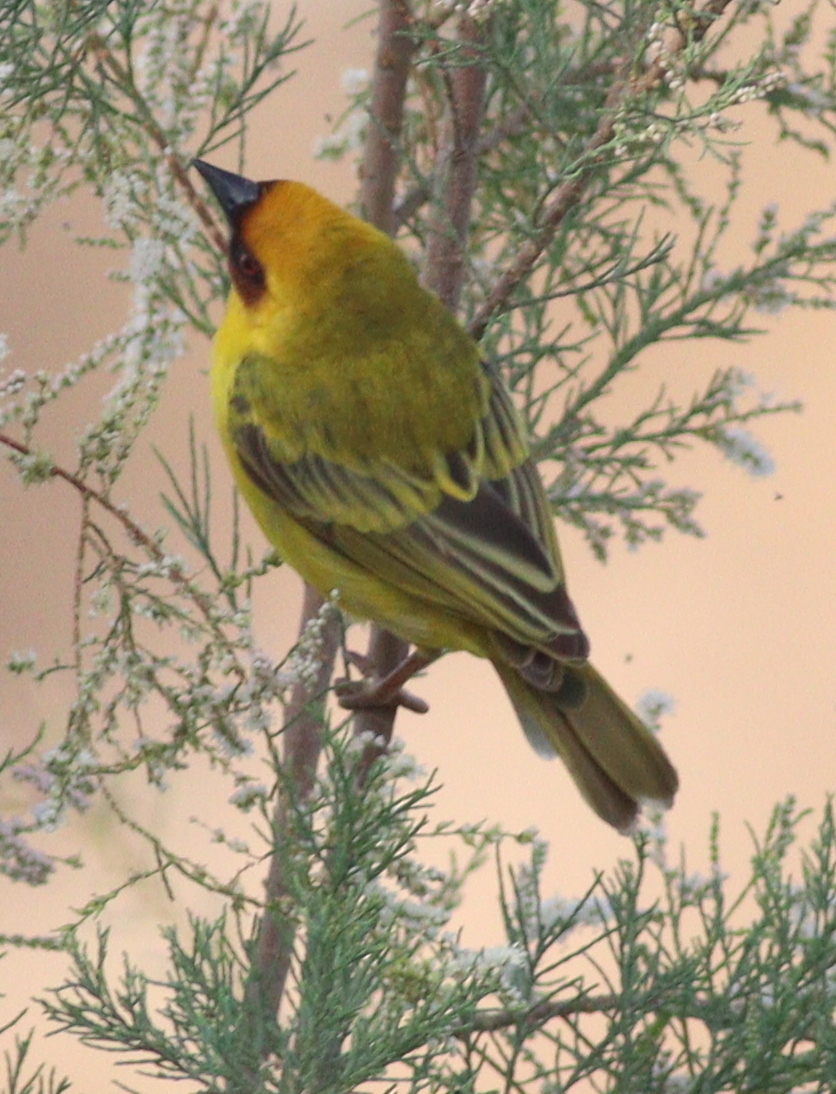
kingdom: Animalia
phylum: Chordata
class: Aves
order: Passeriformes
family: Ploceidae
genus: Ploceus
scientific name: Ploceus galbula
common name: Rüppell's weaver
